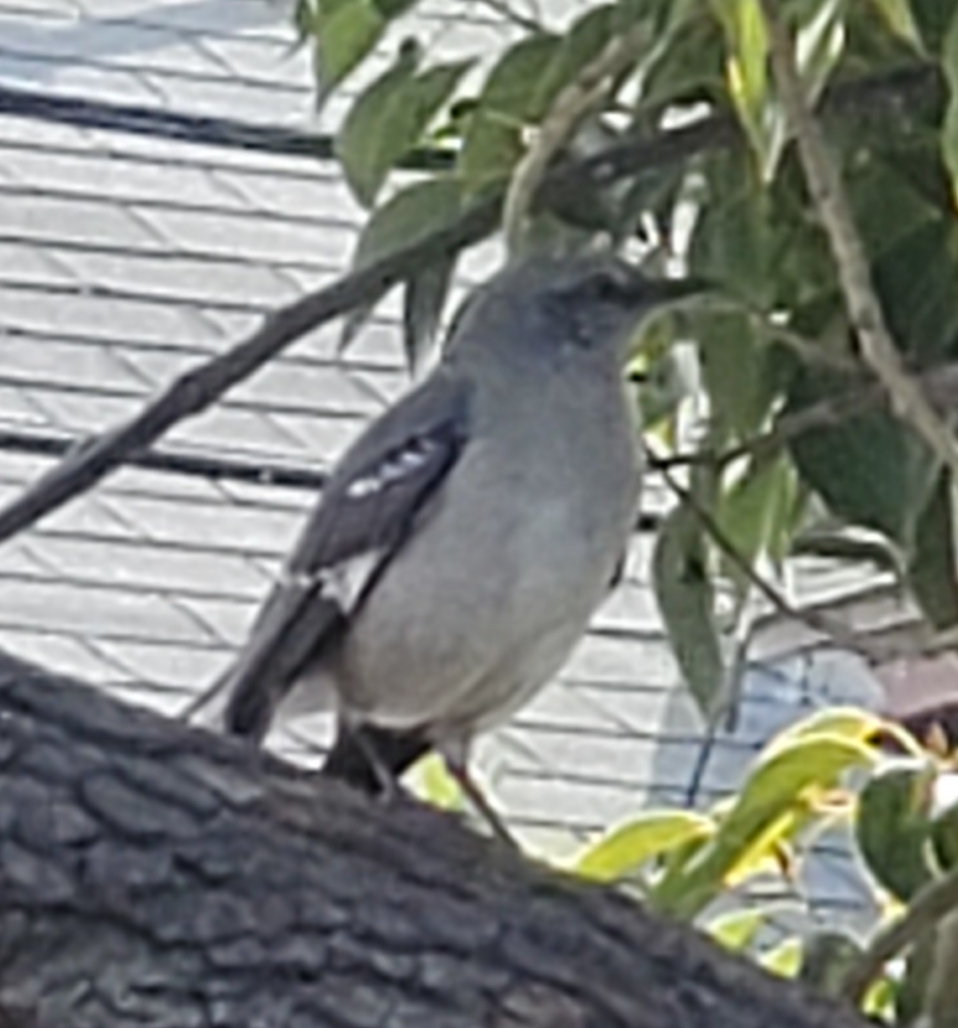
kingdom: Animalia
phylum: Chordata
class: Aves
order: Passeriformes
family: Mimidae
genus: Mimus
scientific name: Mimus polyglottos
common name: Northern mockingbird
